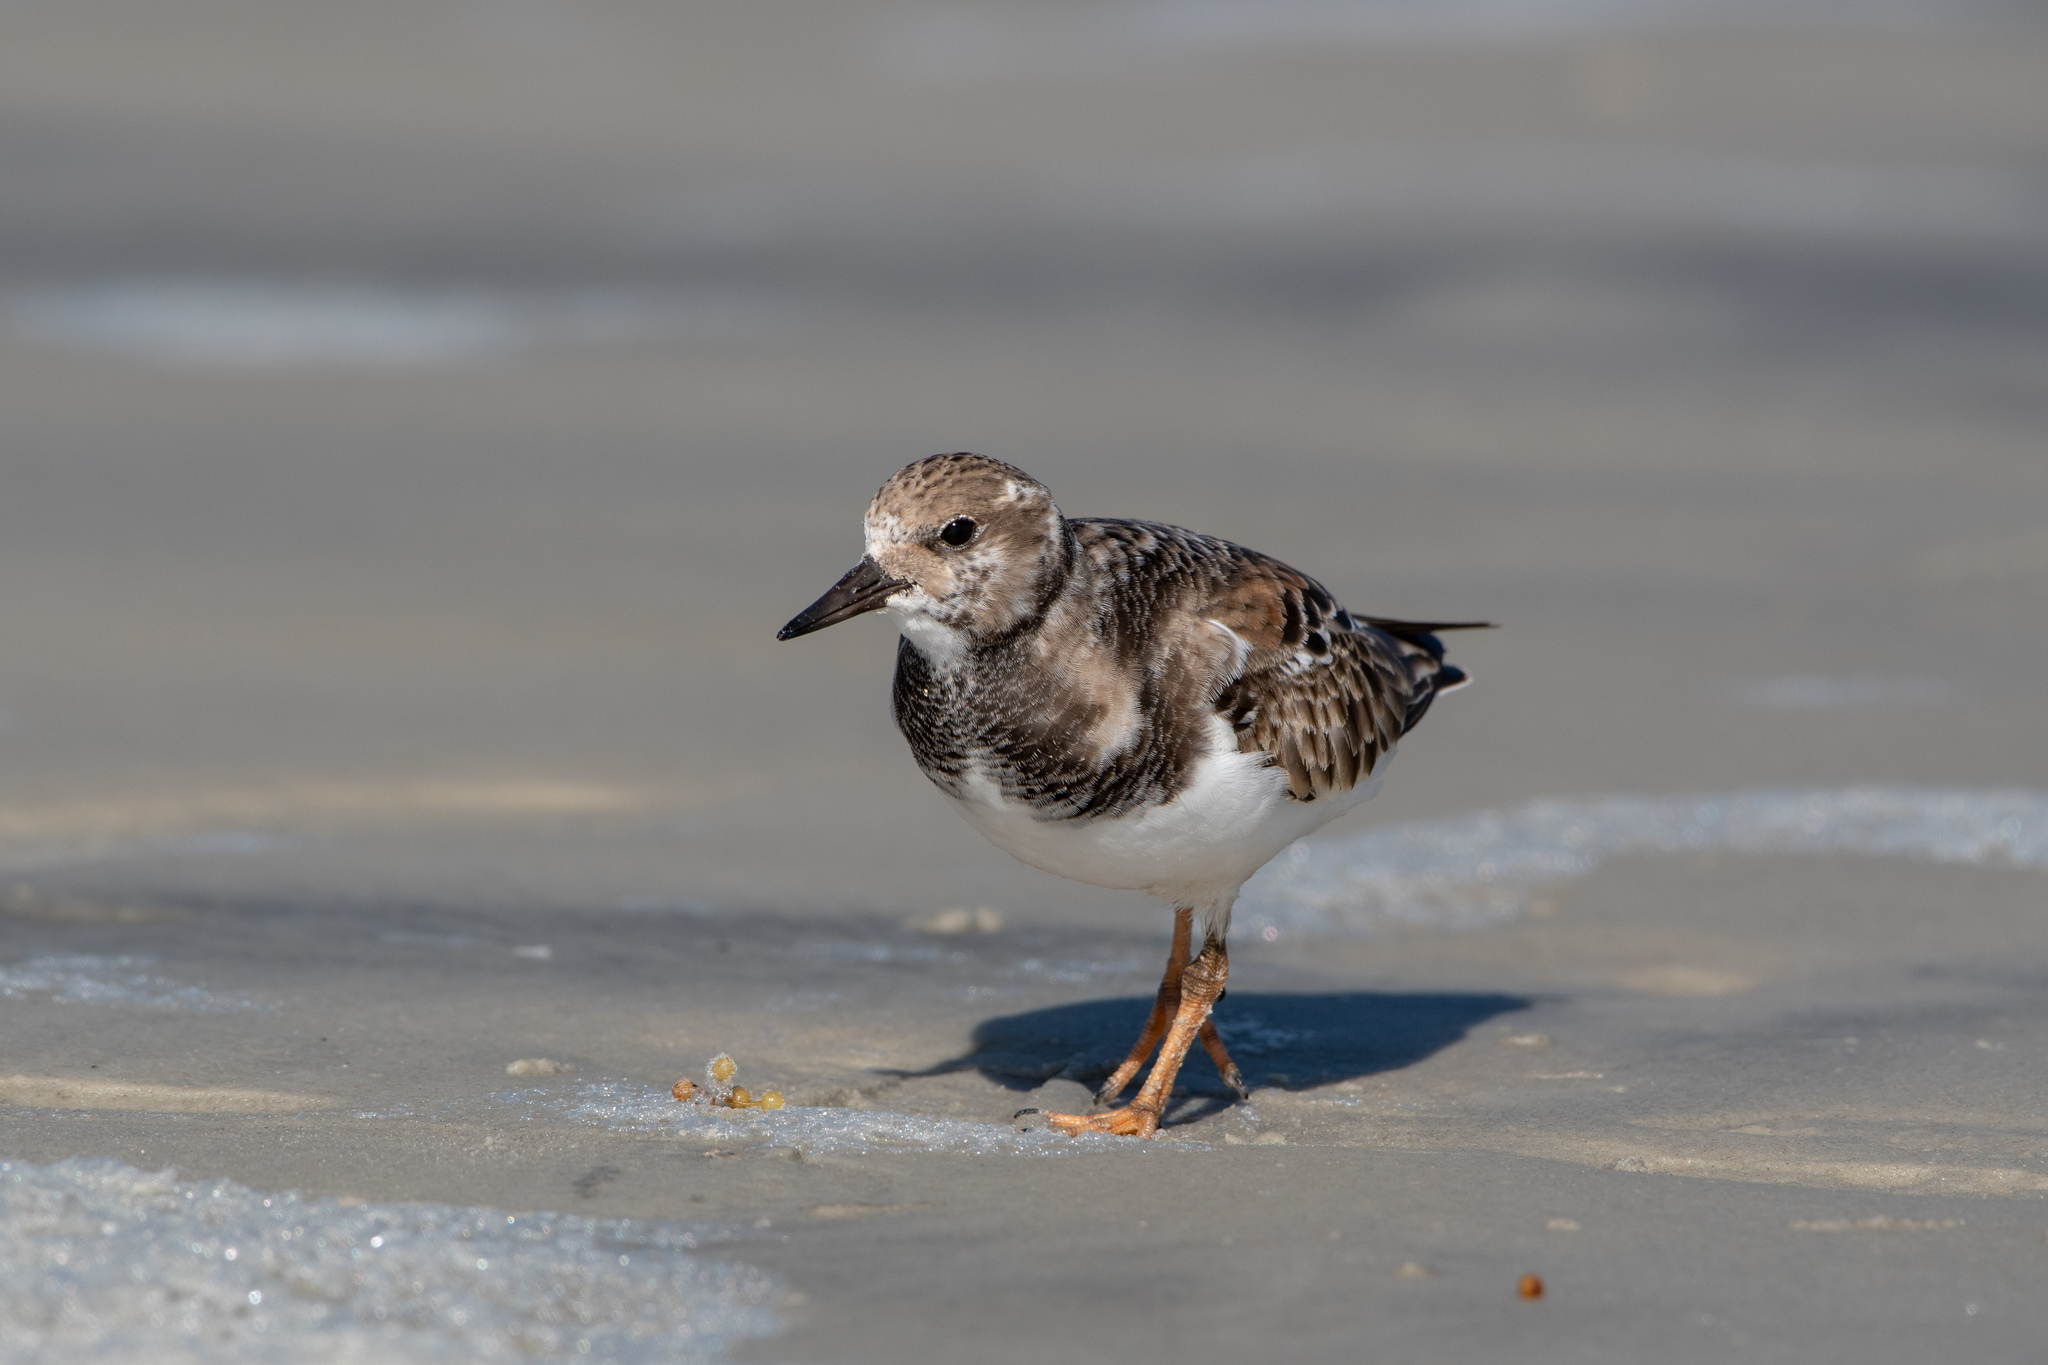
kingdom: Animalia
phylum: Chordata
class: Aves
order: Charadriiformes
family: Scolopacidae
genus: Arenaria
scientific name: Arenaria interpres
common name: Ruddy turnstone
